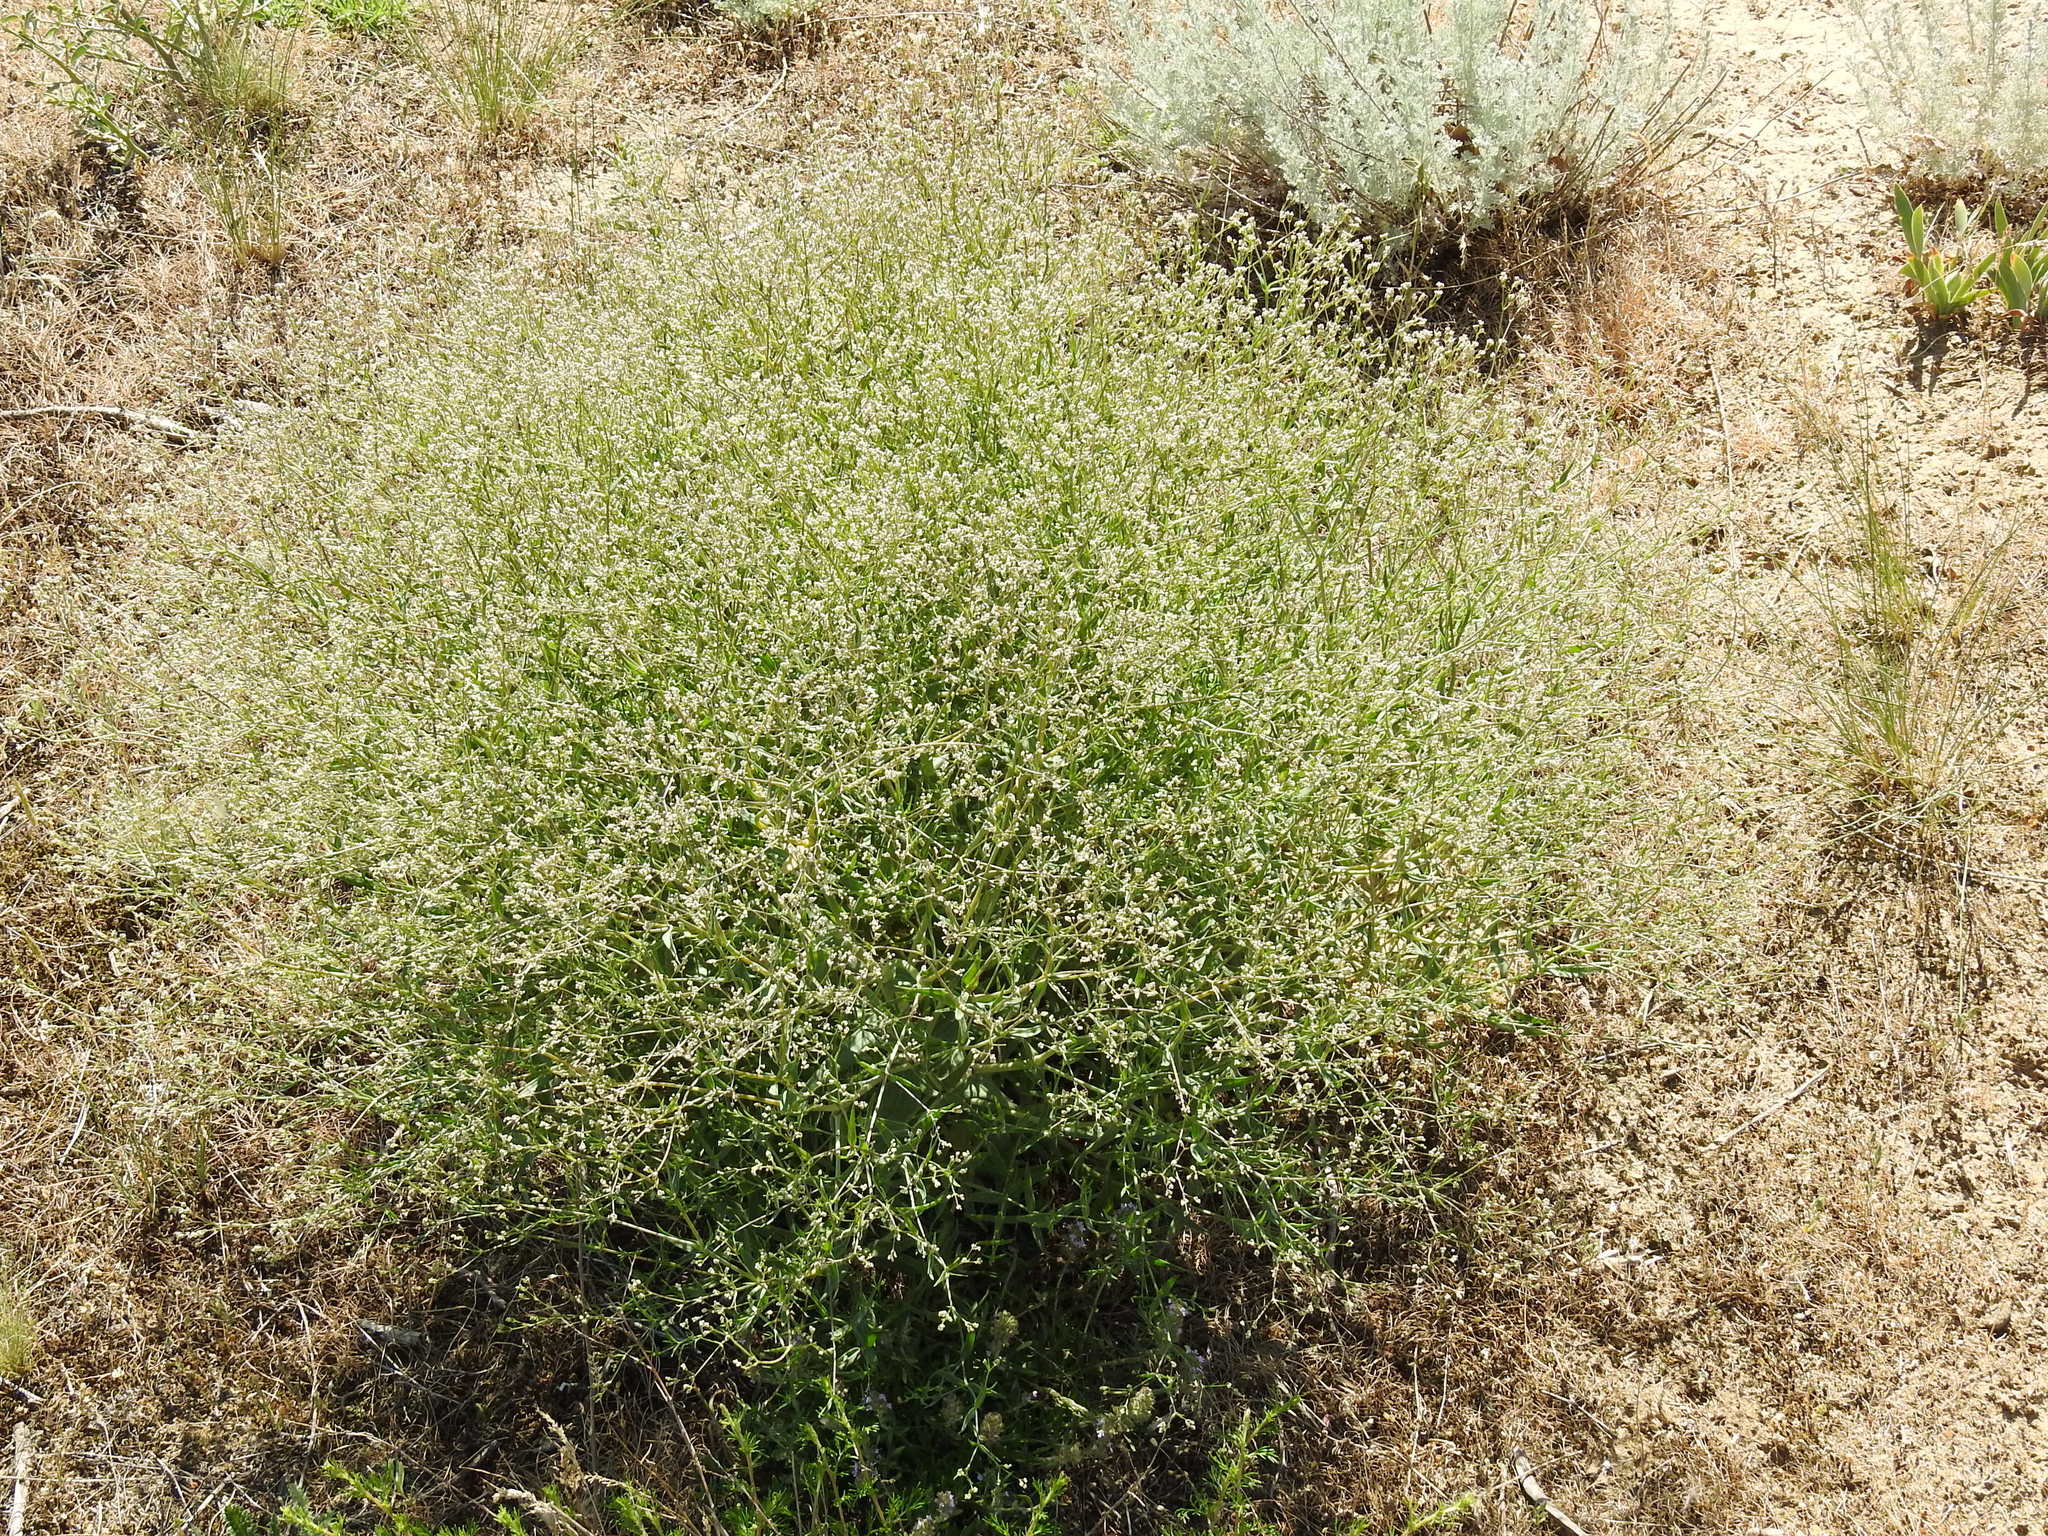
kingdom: Plantae
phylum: Tracheophyta
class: Magnoliopsida
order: Caryophyllales
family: Caryophyllaceae
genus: Gypsophila
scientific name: Gypsophila paniculata
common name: Baby's-breath
